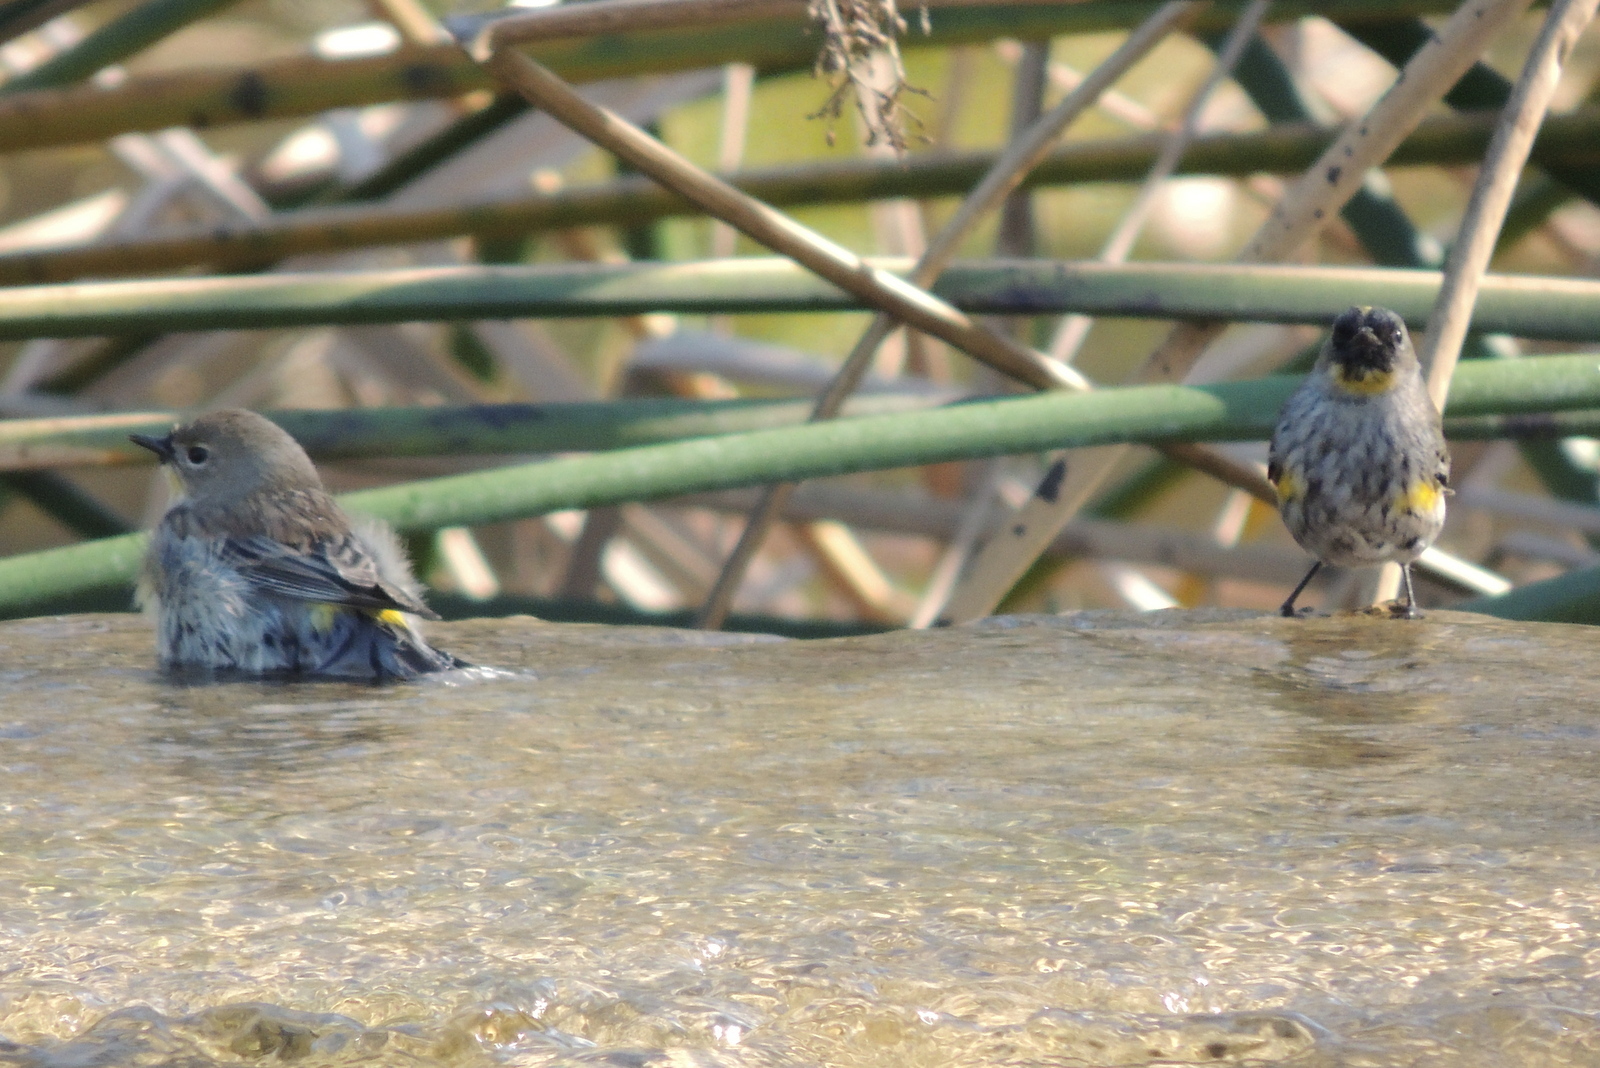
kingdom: Animalia
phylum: Chordata
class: Aves
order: Passeriformes
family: Parulidae
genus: Setophaga
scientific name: Setophaga coronata
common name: Myrtle warbler
